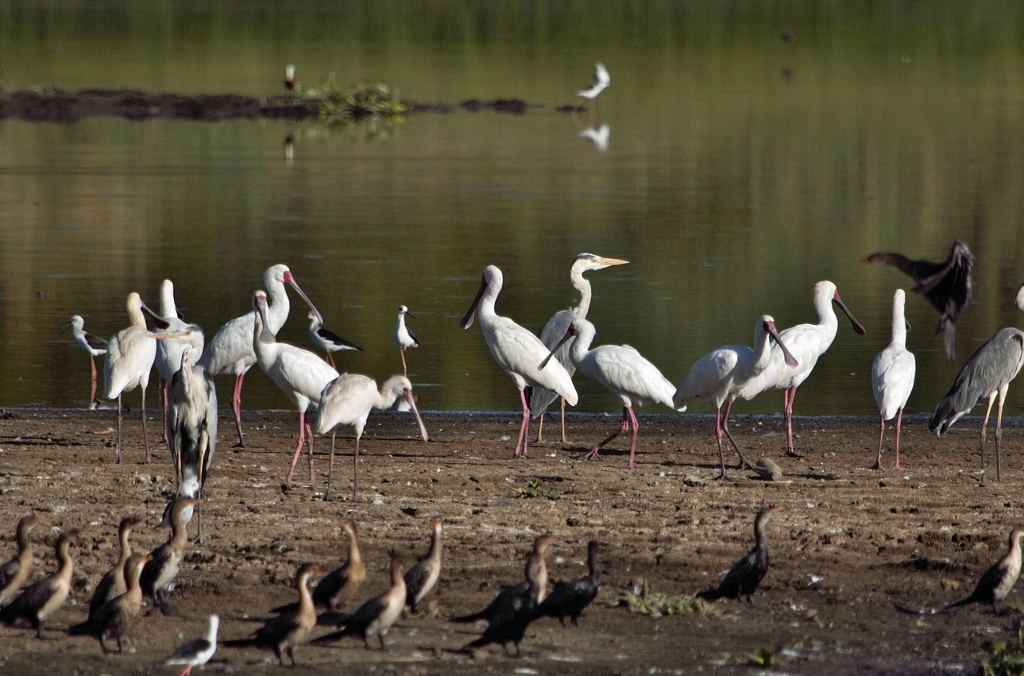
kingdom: Animalia
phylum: Chordata
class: Aves
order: Pelecaniformes
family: Threskiornithidae
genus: Platalea
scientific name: Platalea alba
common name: African spoonbill
